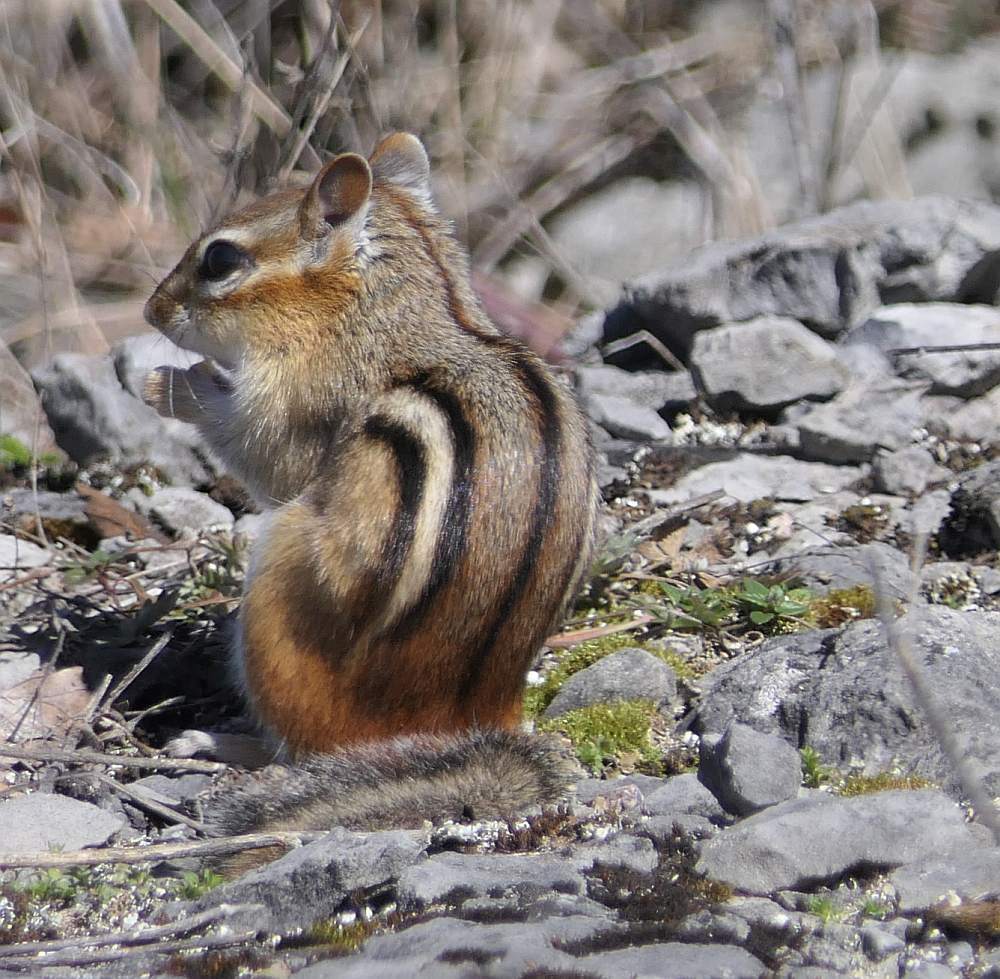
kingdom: Animalia
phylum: Chordata
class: Mammalia
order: Rodentia
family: Sciuridae
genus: Tamias
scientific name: Tamias striatus
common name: Eastern chipmunk
